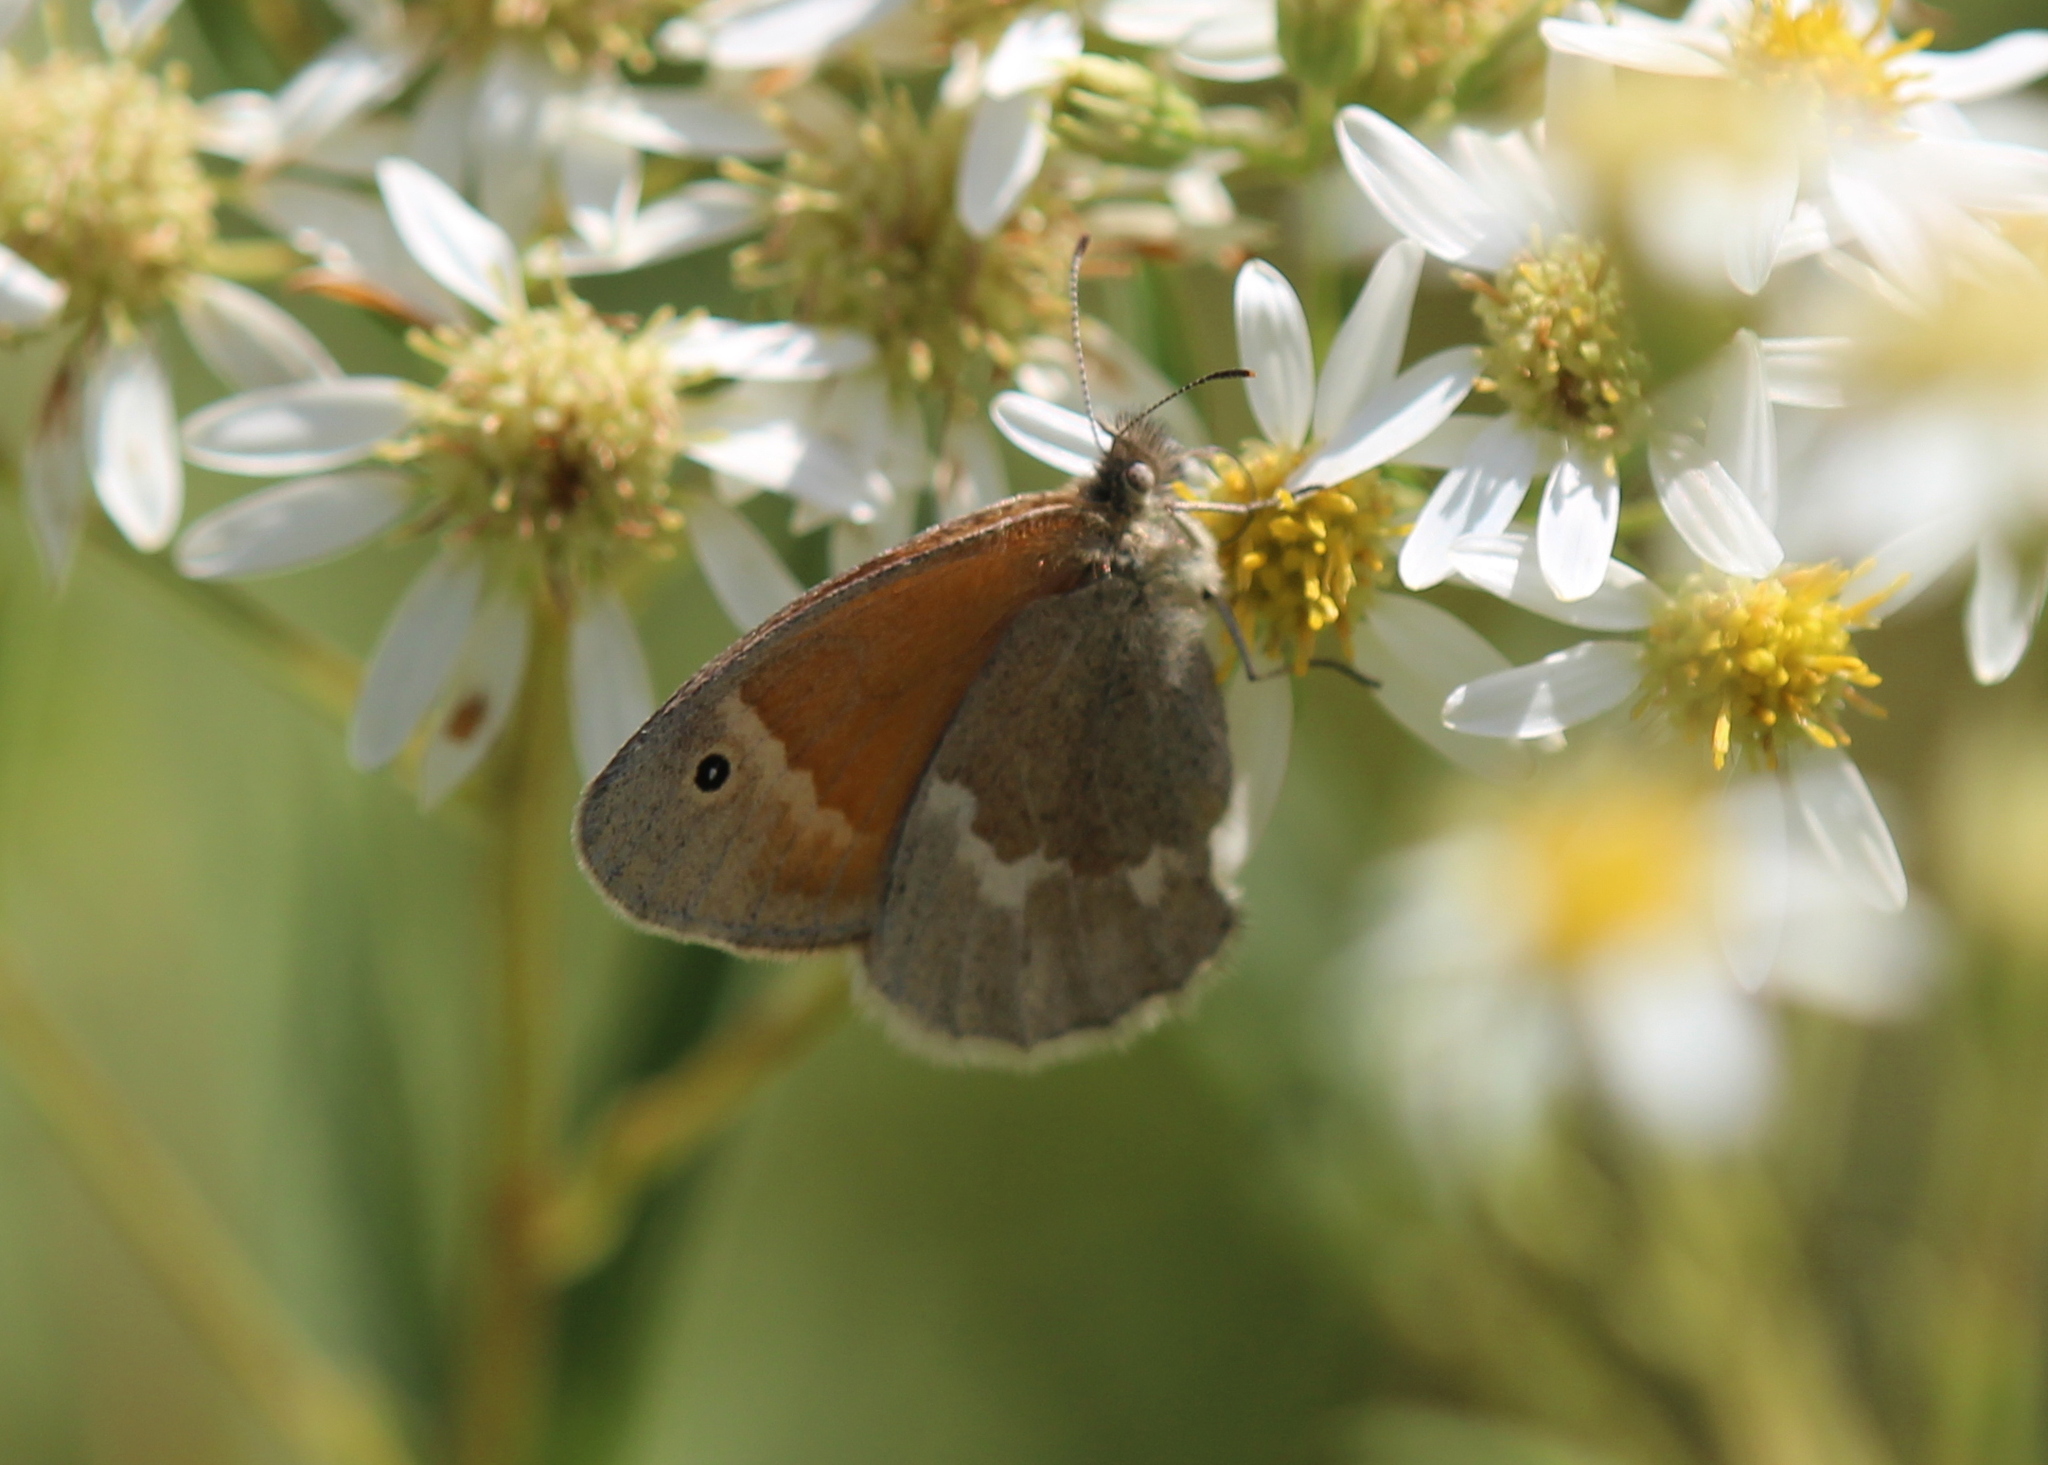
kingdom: Animalia
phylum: Arthropoda
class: Insecta
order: Lepidoptera
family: Nymphalidae
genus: Coenonympha
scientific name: Coenonympha california
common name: Common ringlet
